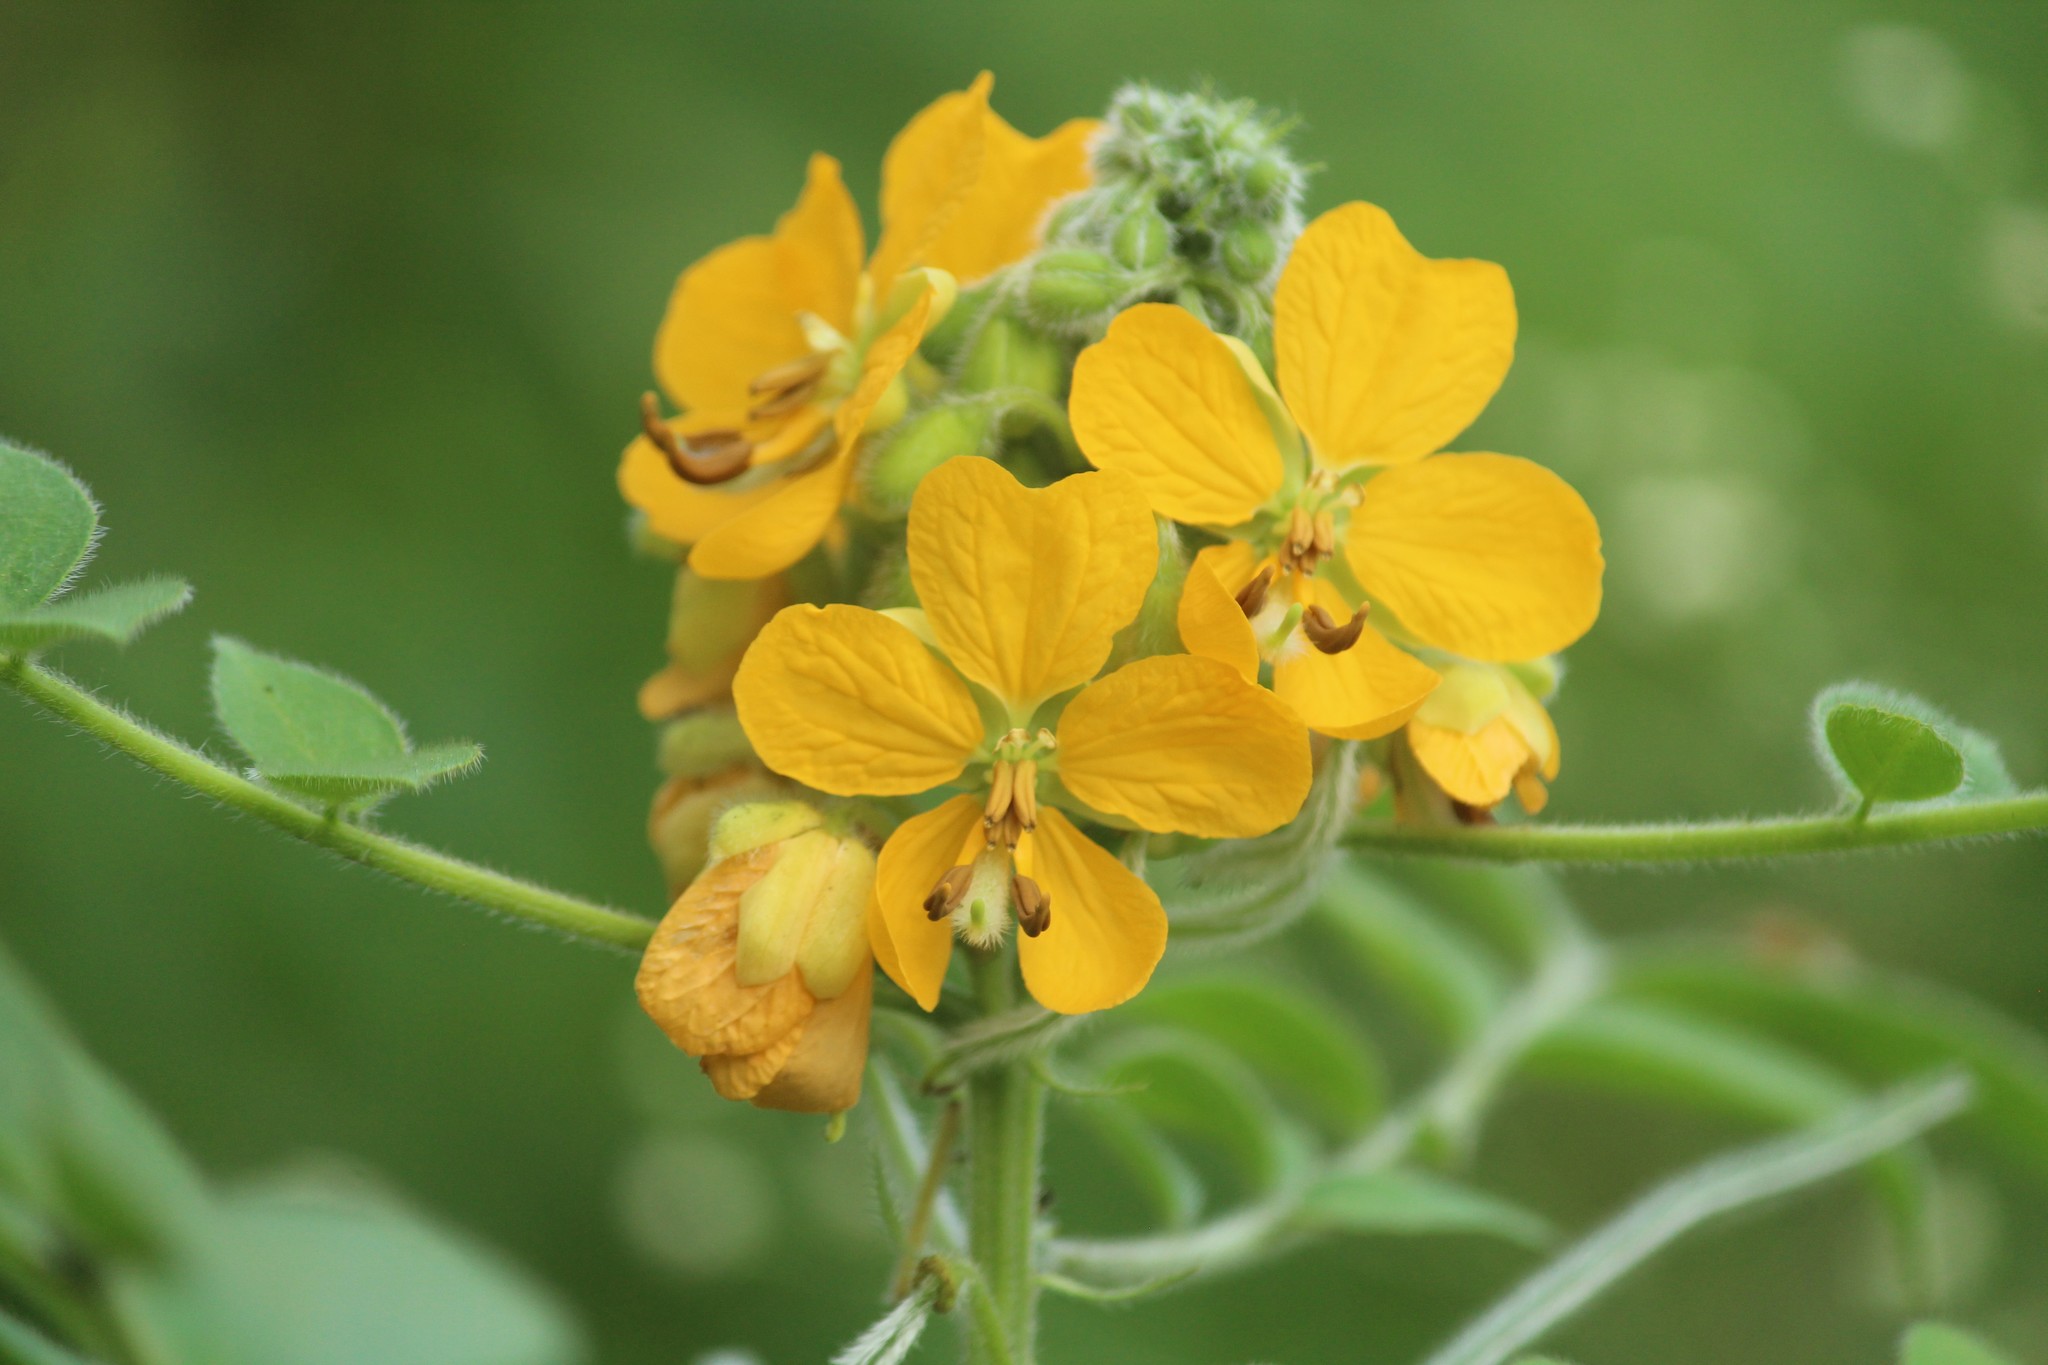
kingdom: Plantae
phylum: Tracheophyta
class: Magnoliopsida
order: Fabales
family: Fabaceae
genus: Senna
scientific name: Senna hirsuta
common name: Woolly senna
